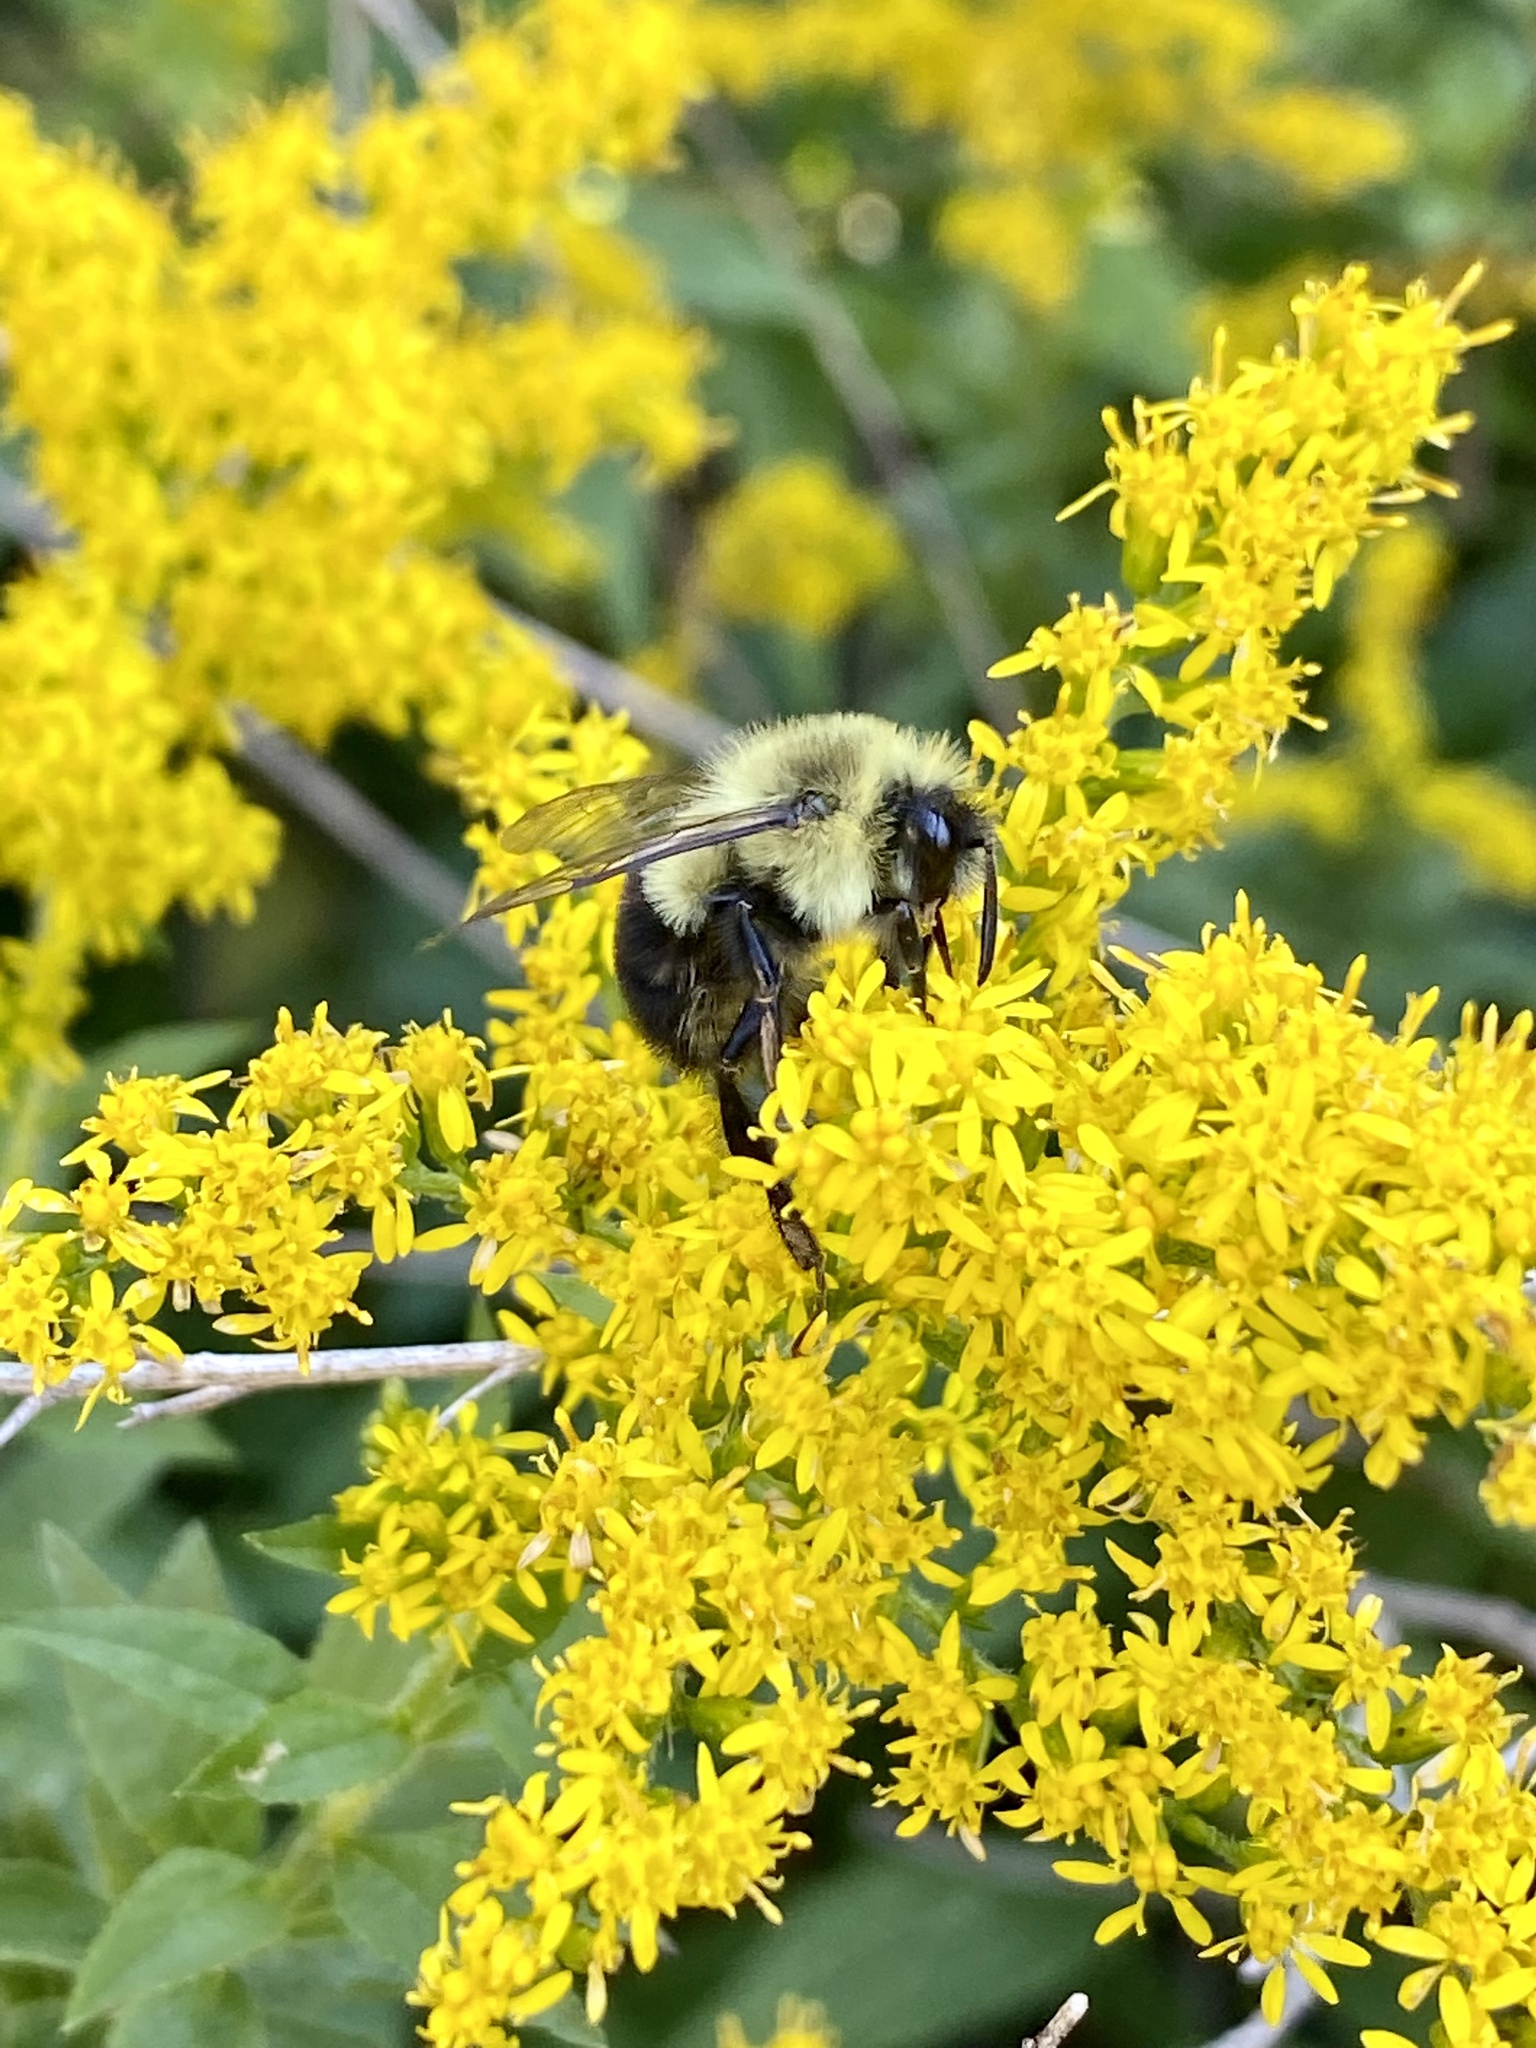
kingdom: Animalia
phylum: Arthropoda
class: Insecta
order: Hymenoptera
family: Apidae
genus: Bombus
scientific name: Bombus impatiens
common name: Common eastern bumble bee
